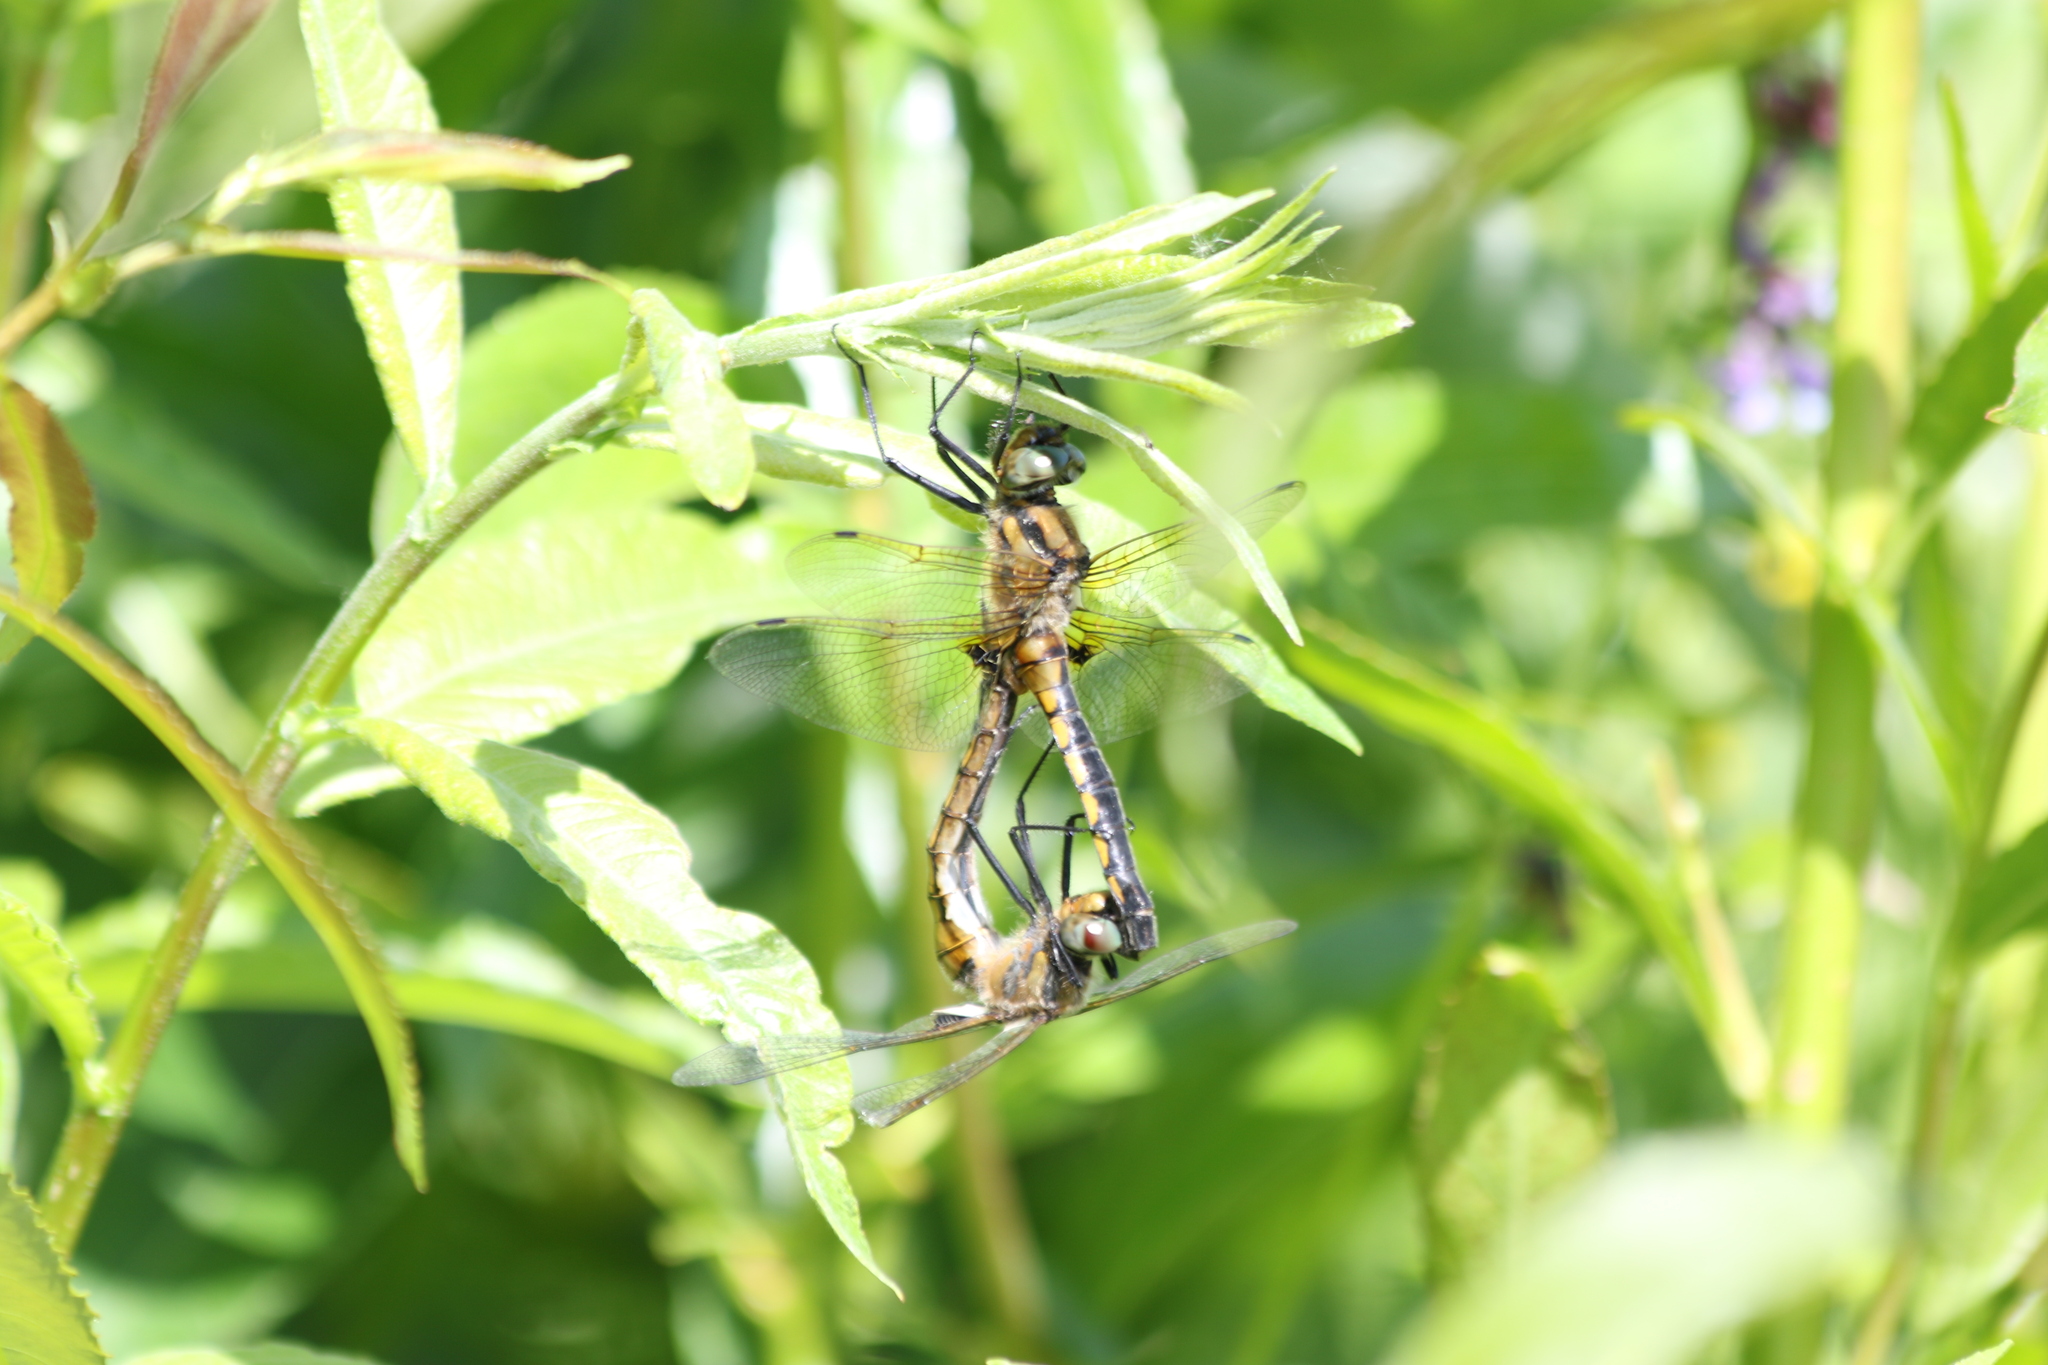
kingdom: Animalia
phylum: Arthropoda
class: Insecta
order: Odonata
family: Corduliidae
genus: Epitheca
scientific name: Epitheca bimaculata
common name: Eurasian baskettail
